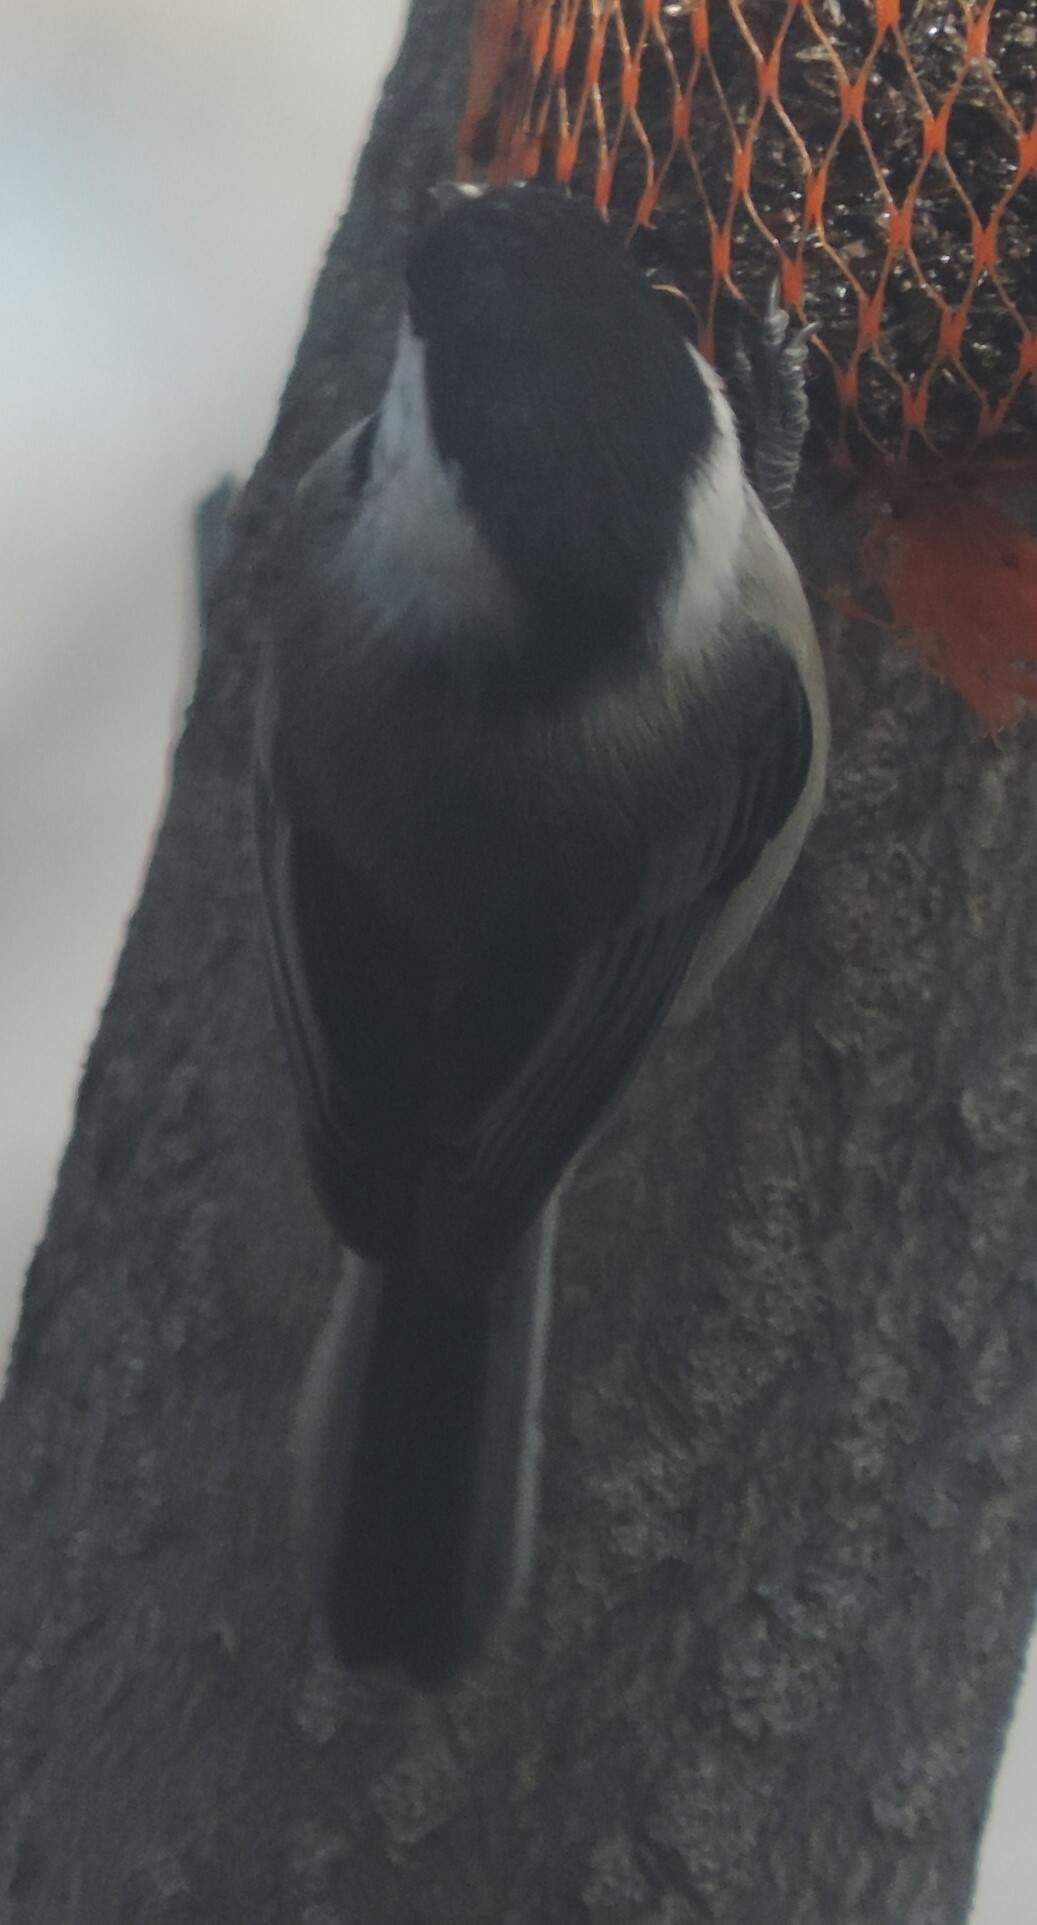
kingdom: Animalia
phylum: Chordata
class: Aves
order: Passeriformes
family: Paridae
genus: Poecile
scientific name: Poecile atricapillus
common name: Black-capped chickadee
